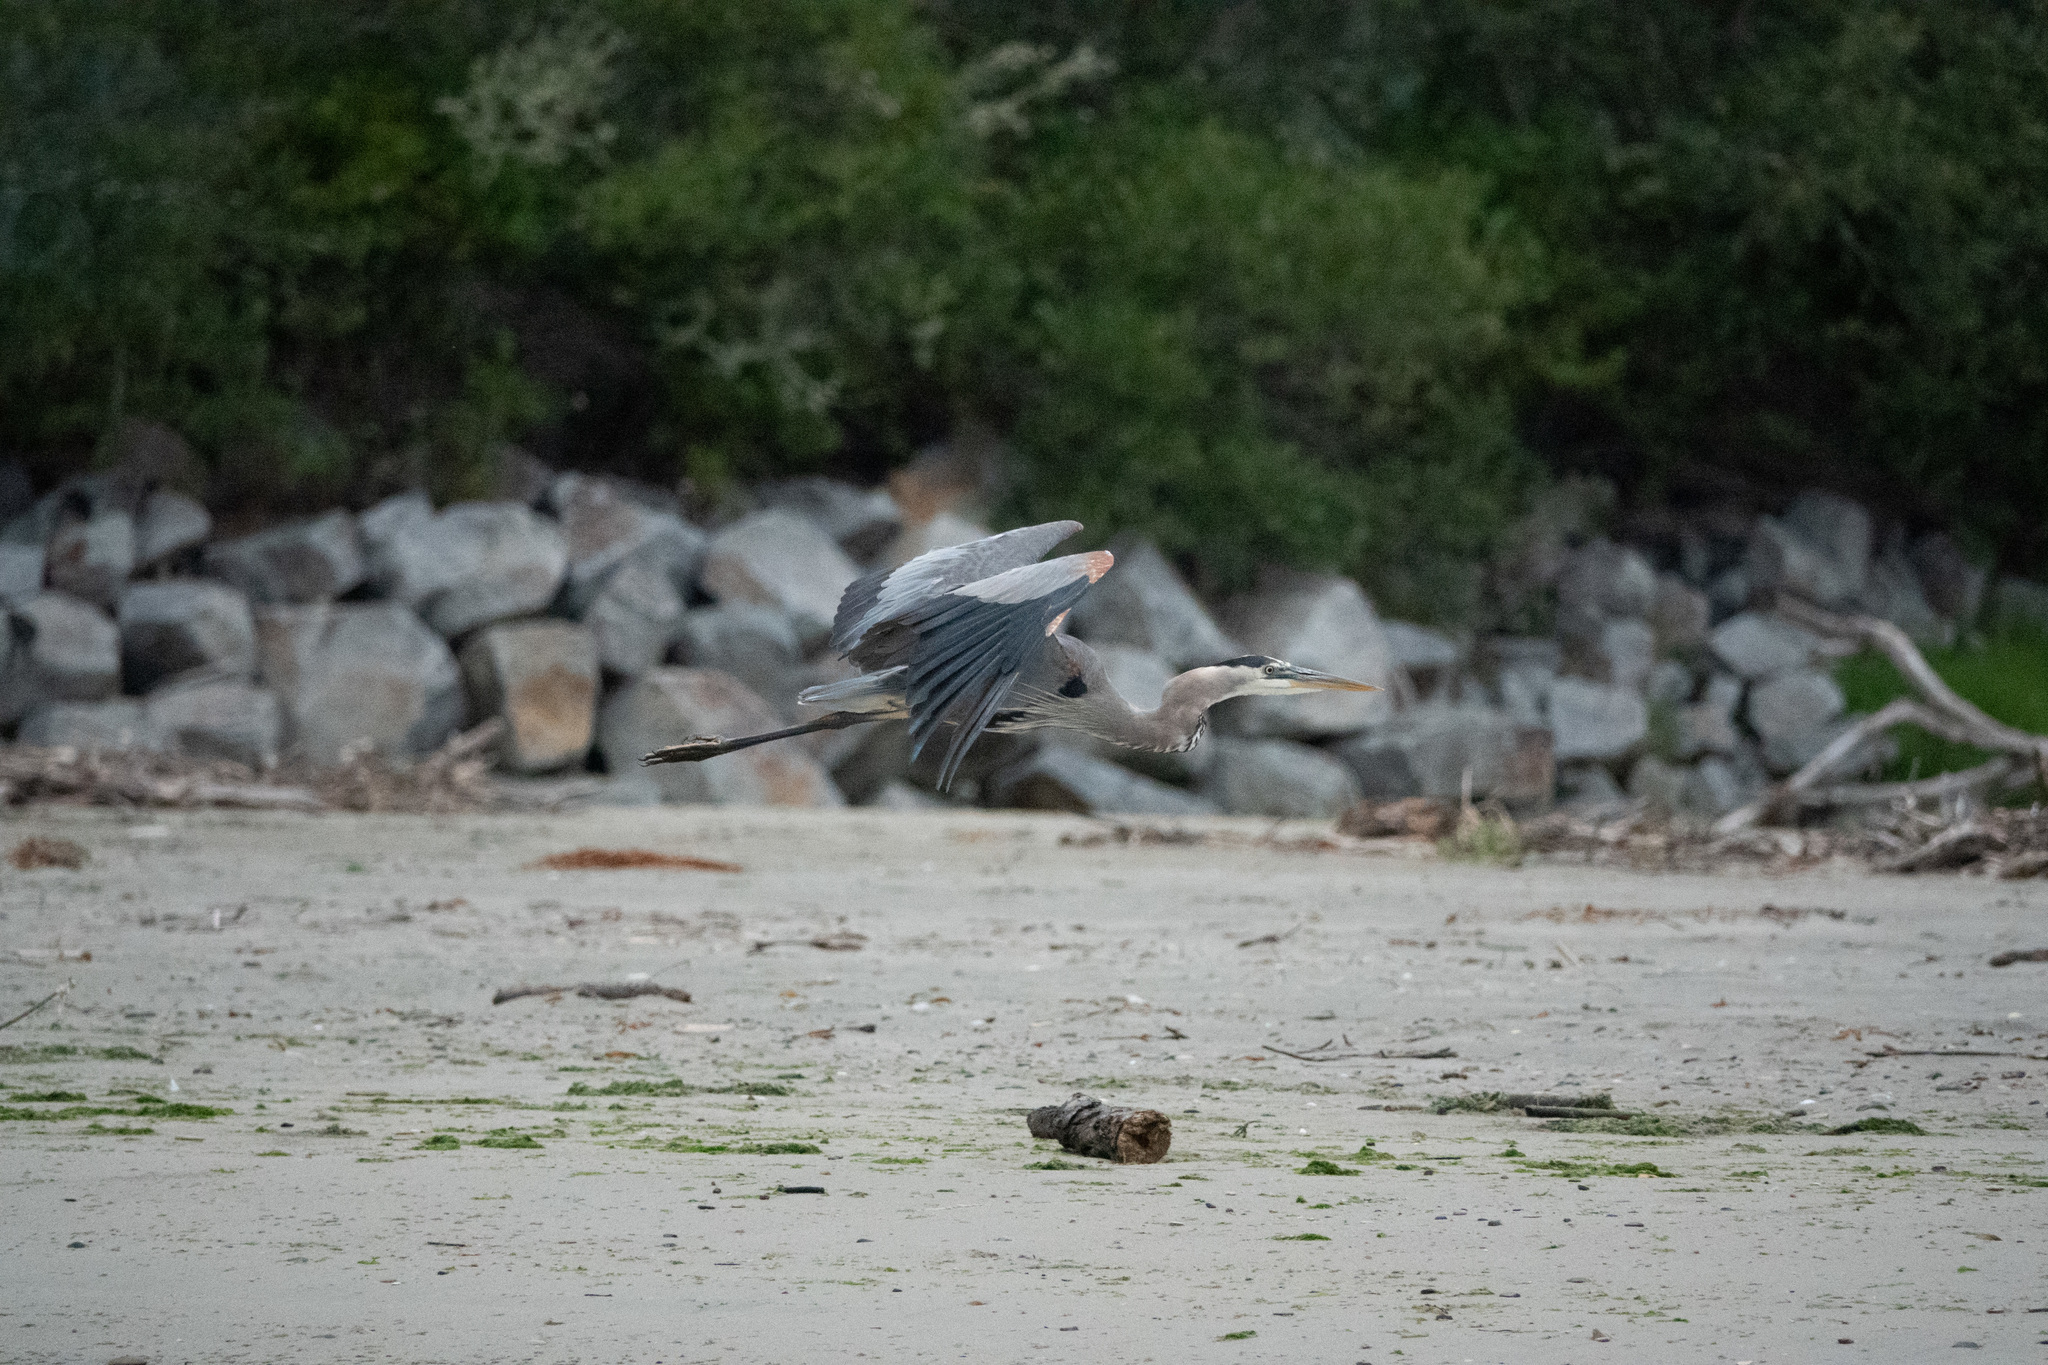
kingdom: Animalia
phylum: Chordata
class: Aves
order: Pelecaniformes
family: Ardeidae
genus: Ardea
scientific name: Ardea herodias
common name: Great blue heron
